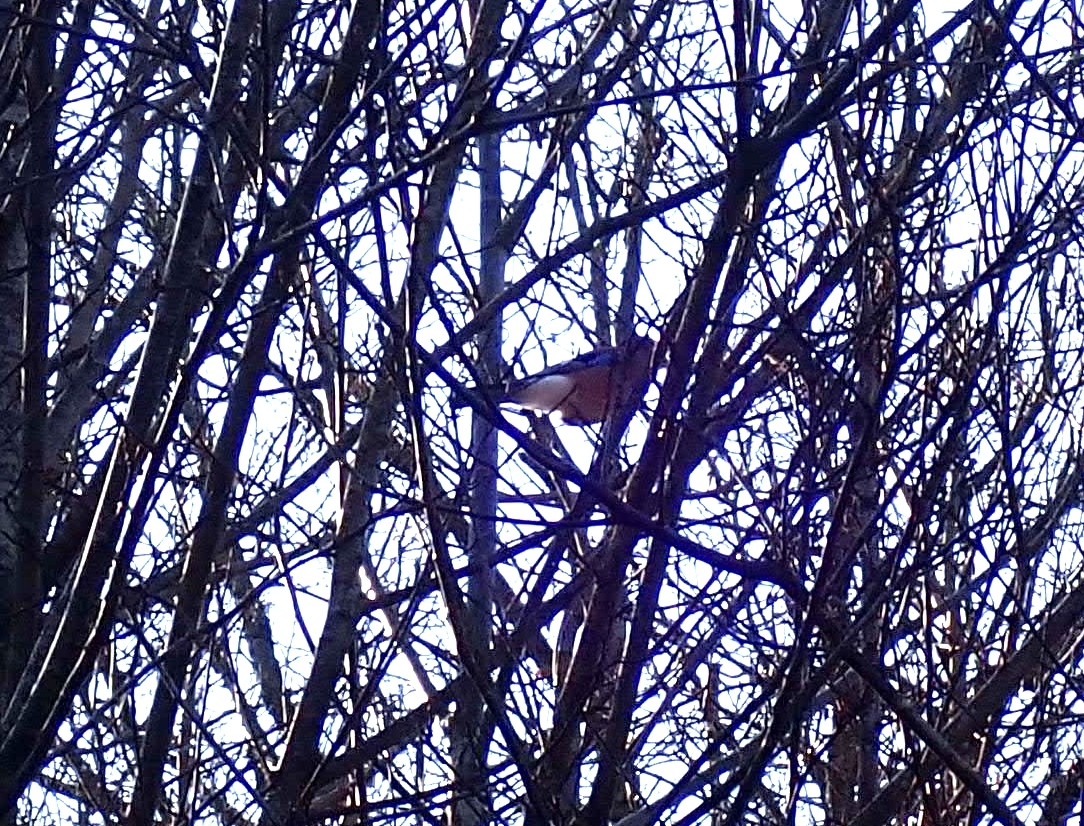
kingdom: Animalia
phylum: Chordata
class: Aves
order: Passeriformes
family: Corvidae
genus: Garrulus
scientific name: Garrulus glandarius
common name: Eurasian jay
